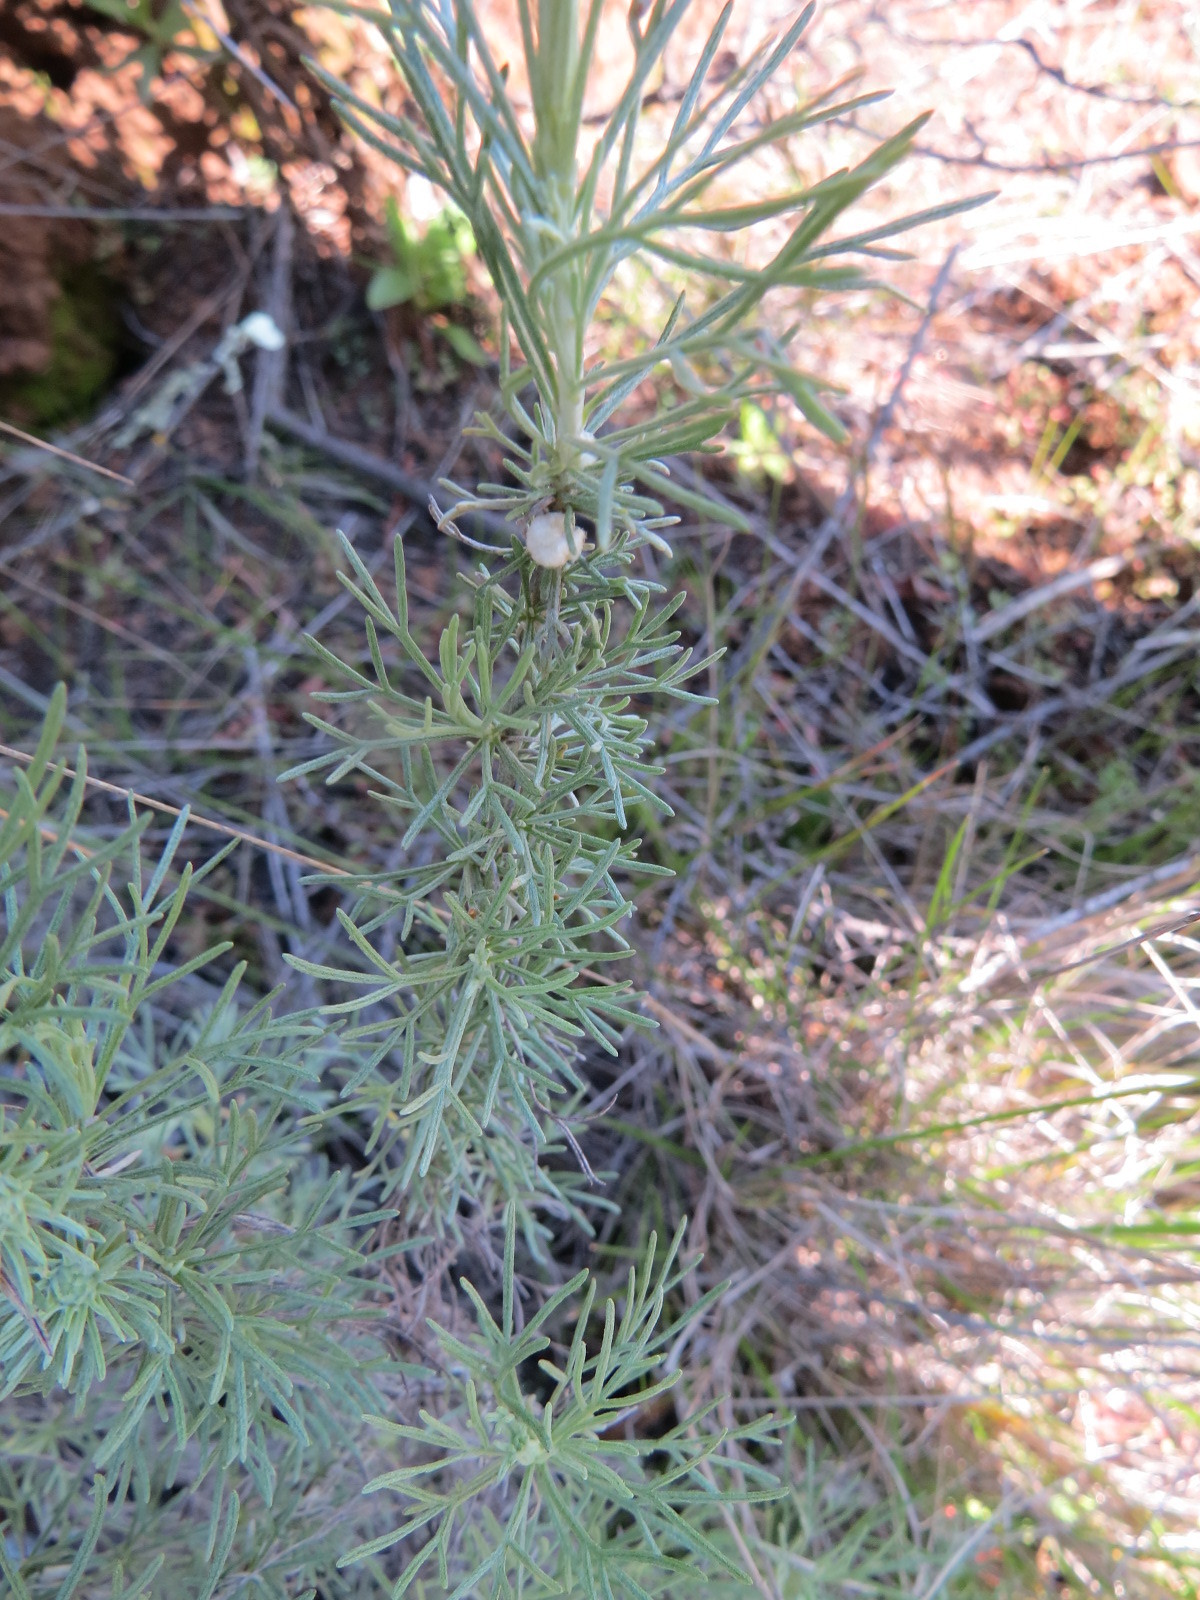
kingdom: Plantae
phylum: Tracheophyta
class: Magnoliopsida
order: Asterales
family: Asteraceae
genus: Artemisia
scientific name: Artemisia californica
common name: California sagebrush
